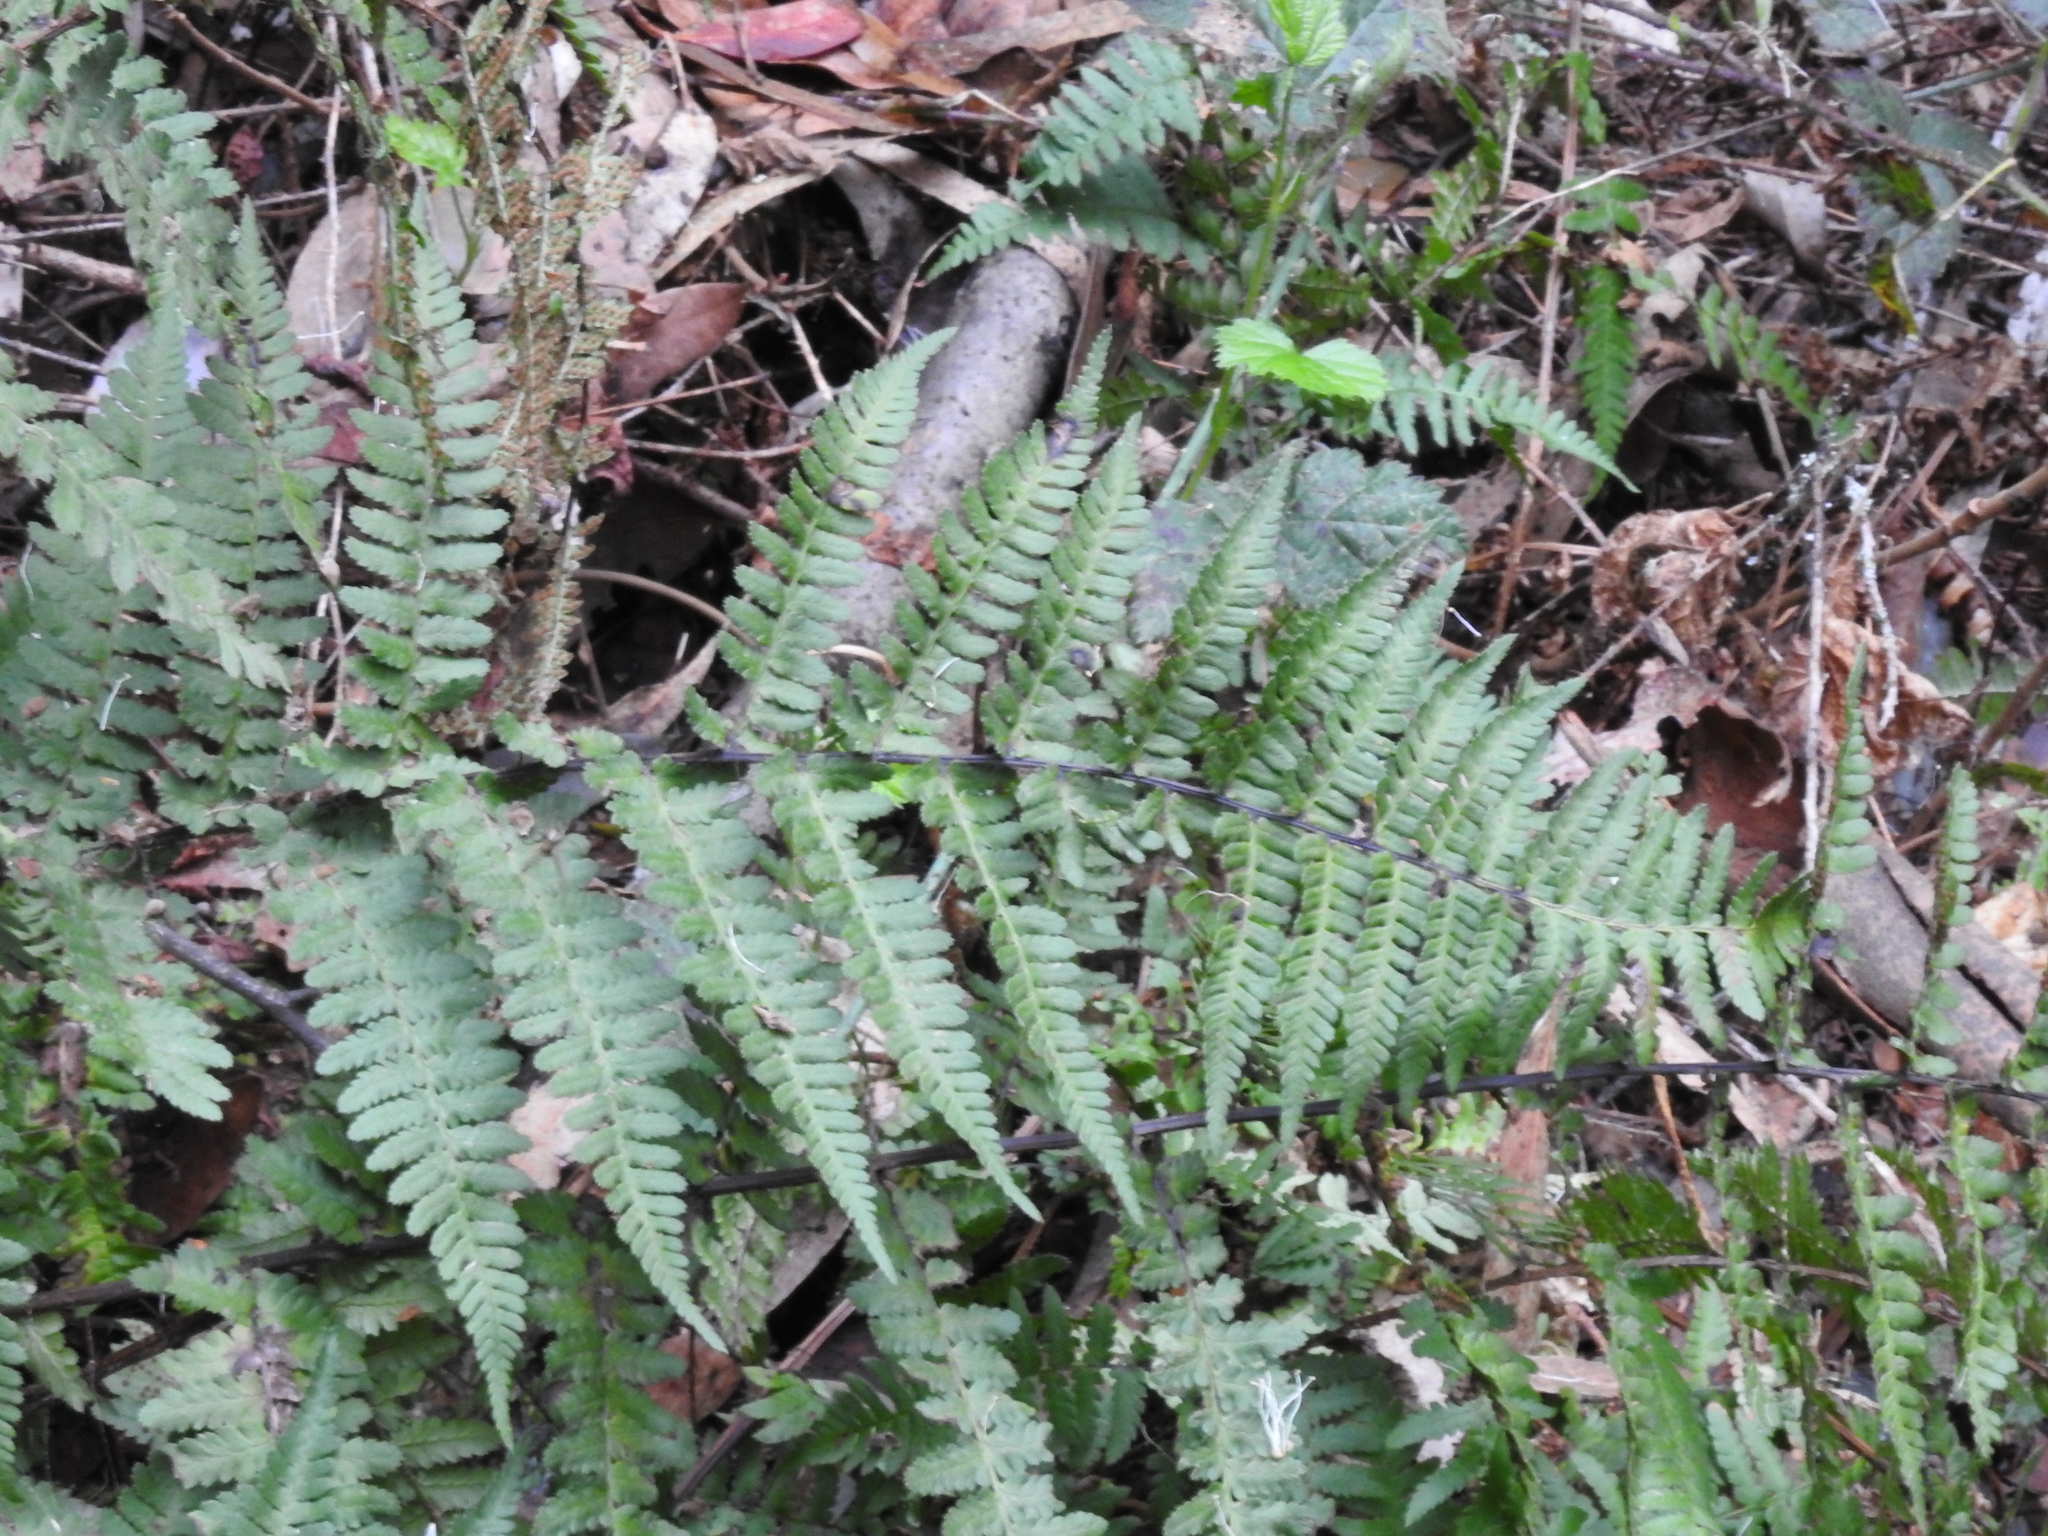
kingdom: Plantae
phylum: Tracheophyta
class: Polypodiopsida
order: Polypodiales
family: Dryopteridaceae
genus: Dryopteris
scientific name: Dryopteris arguta
